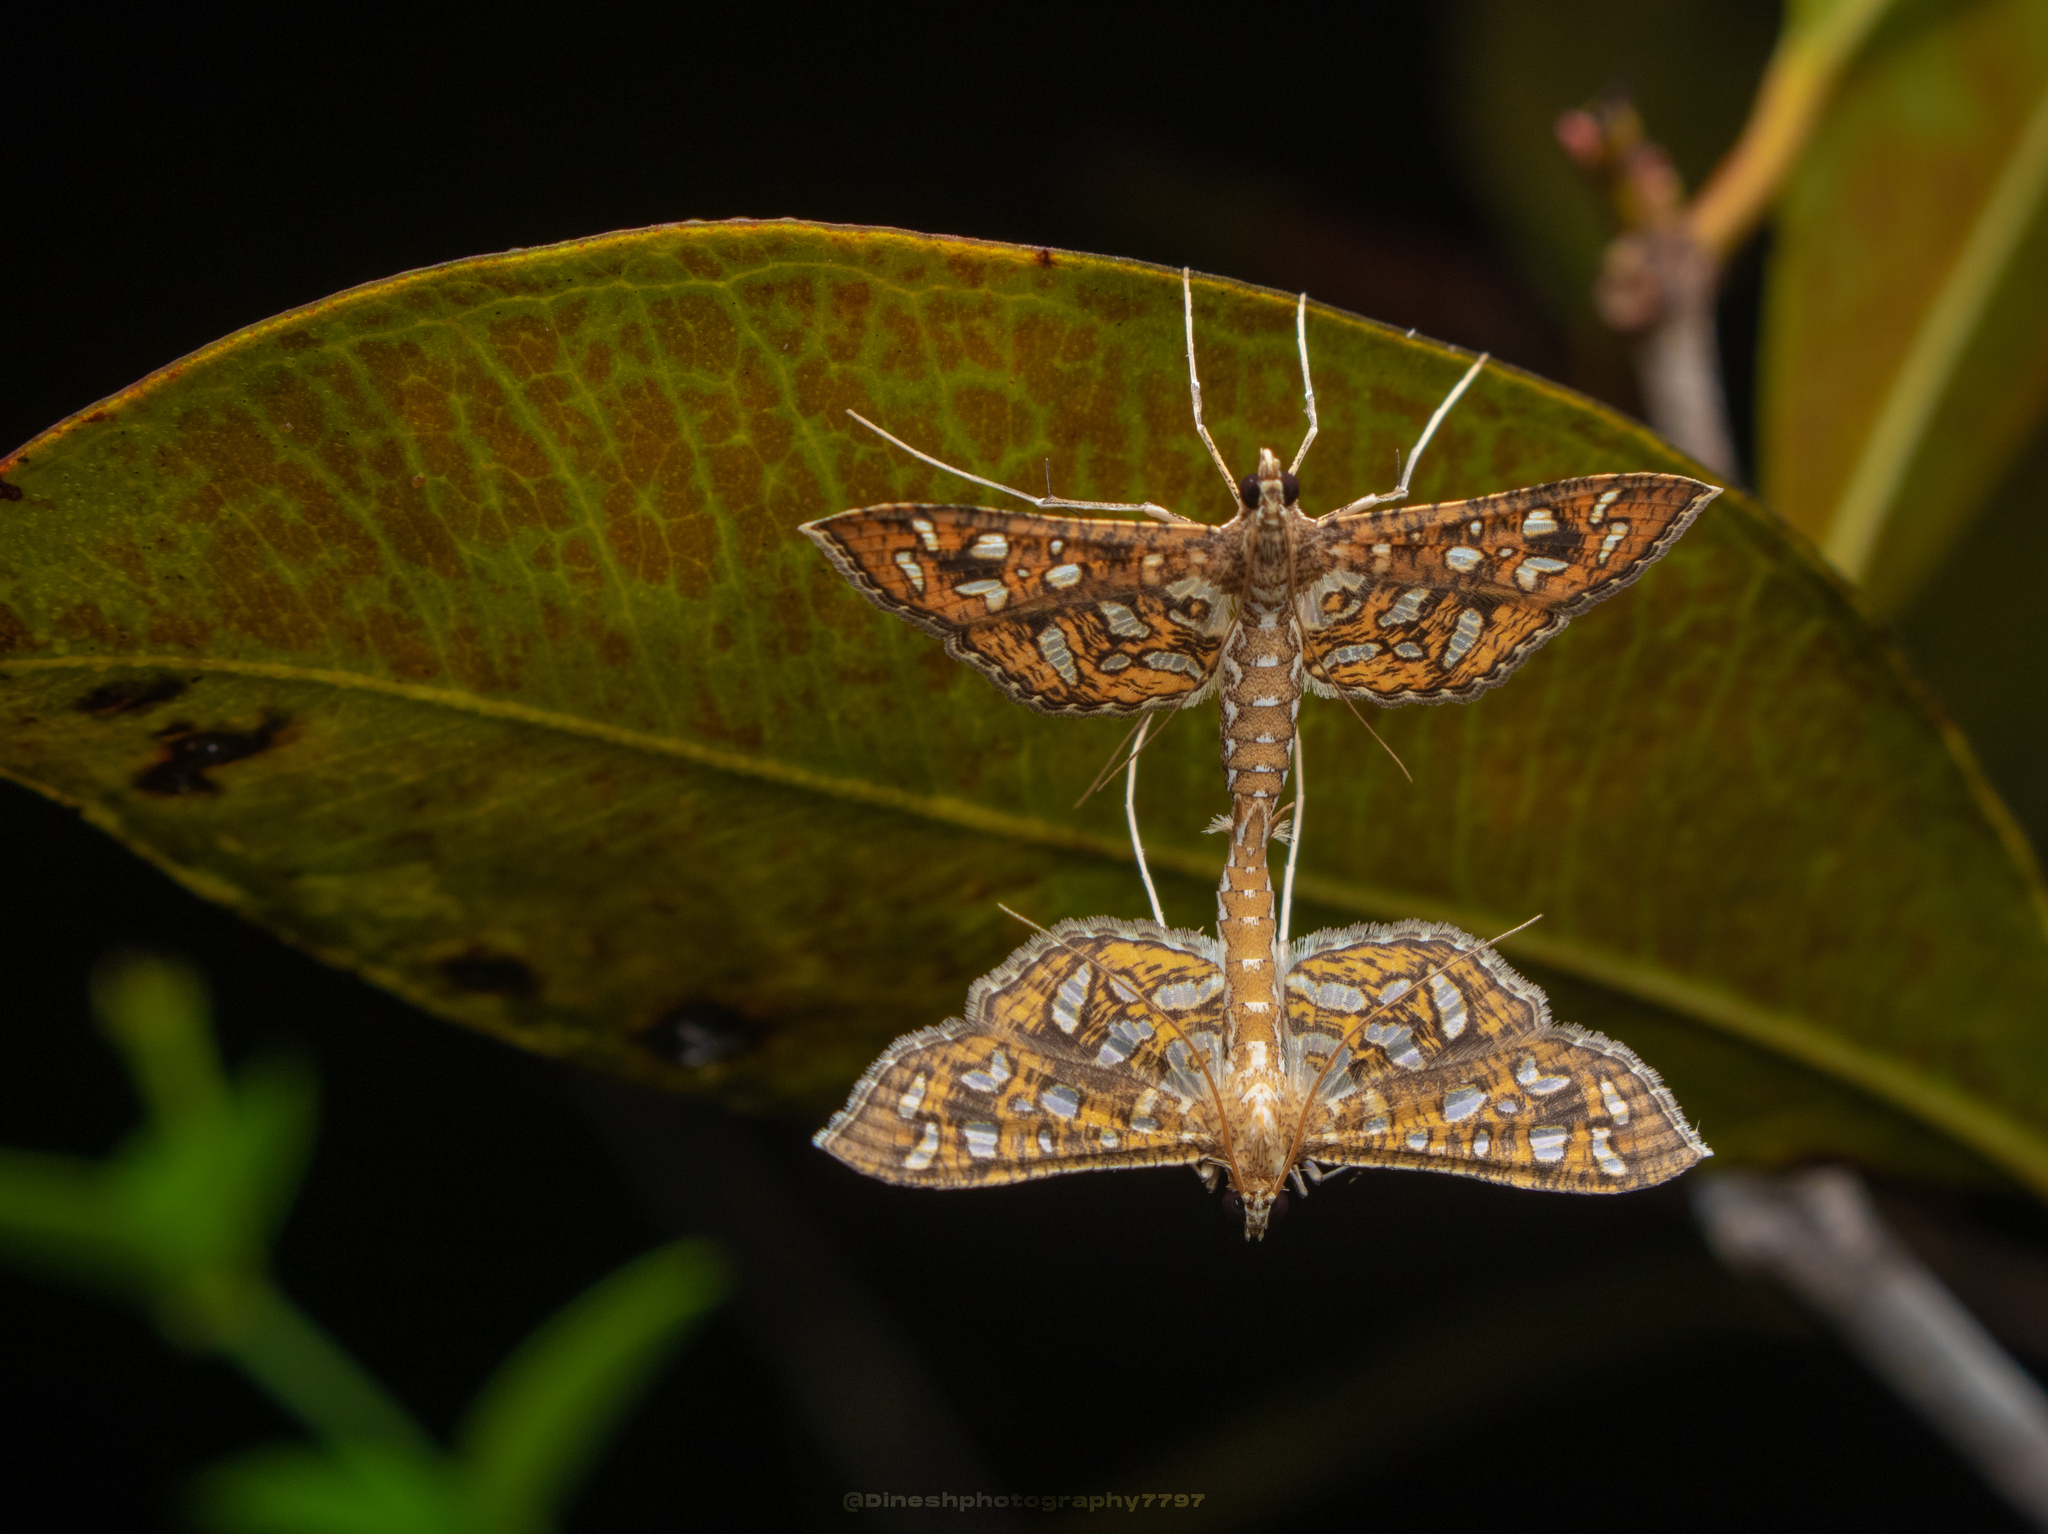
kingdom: Animalia
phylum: Arthropoda
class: Insecta
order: Lepidoptera
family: Crambidae
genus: Nausinoe
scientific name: Nausinoe geometralis
